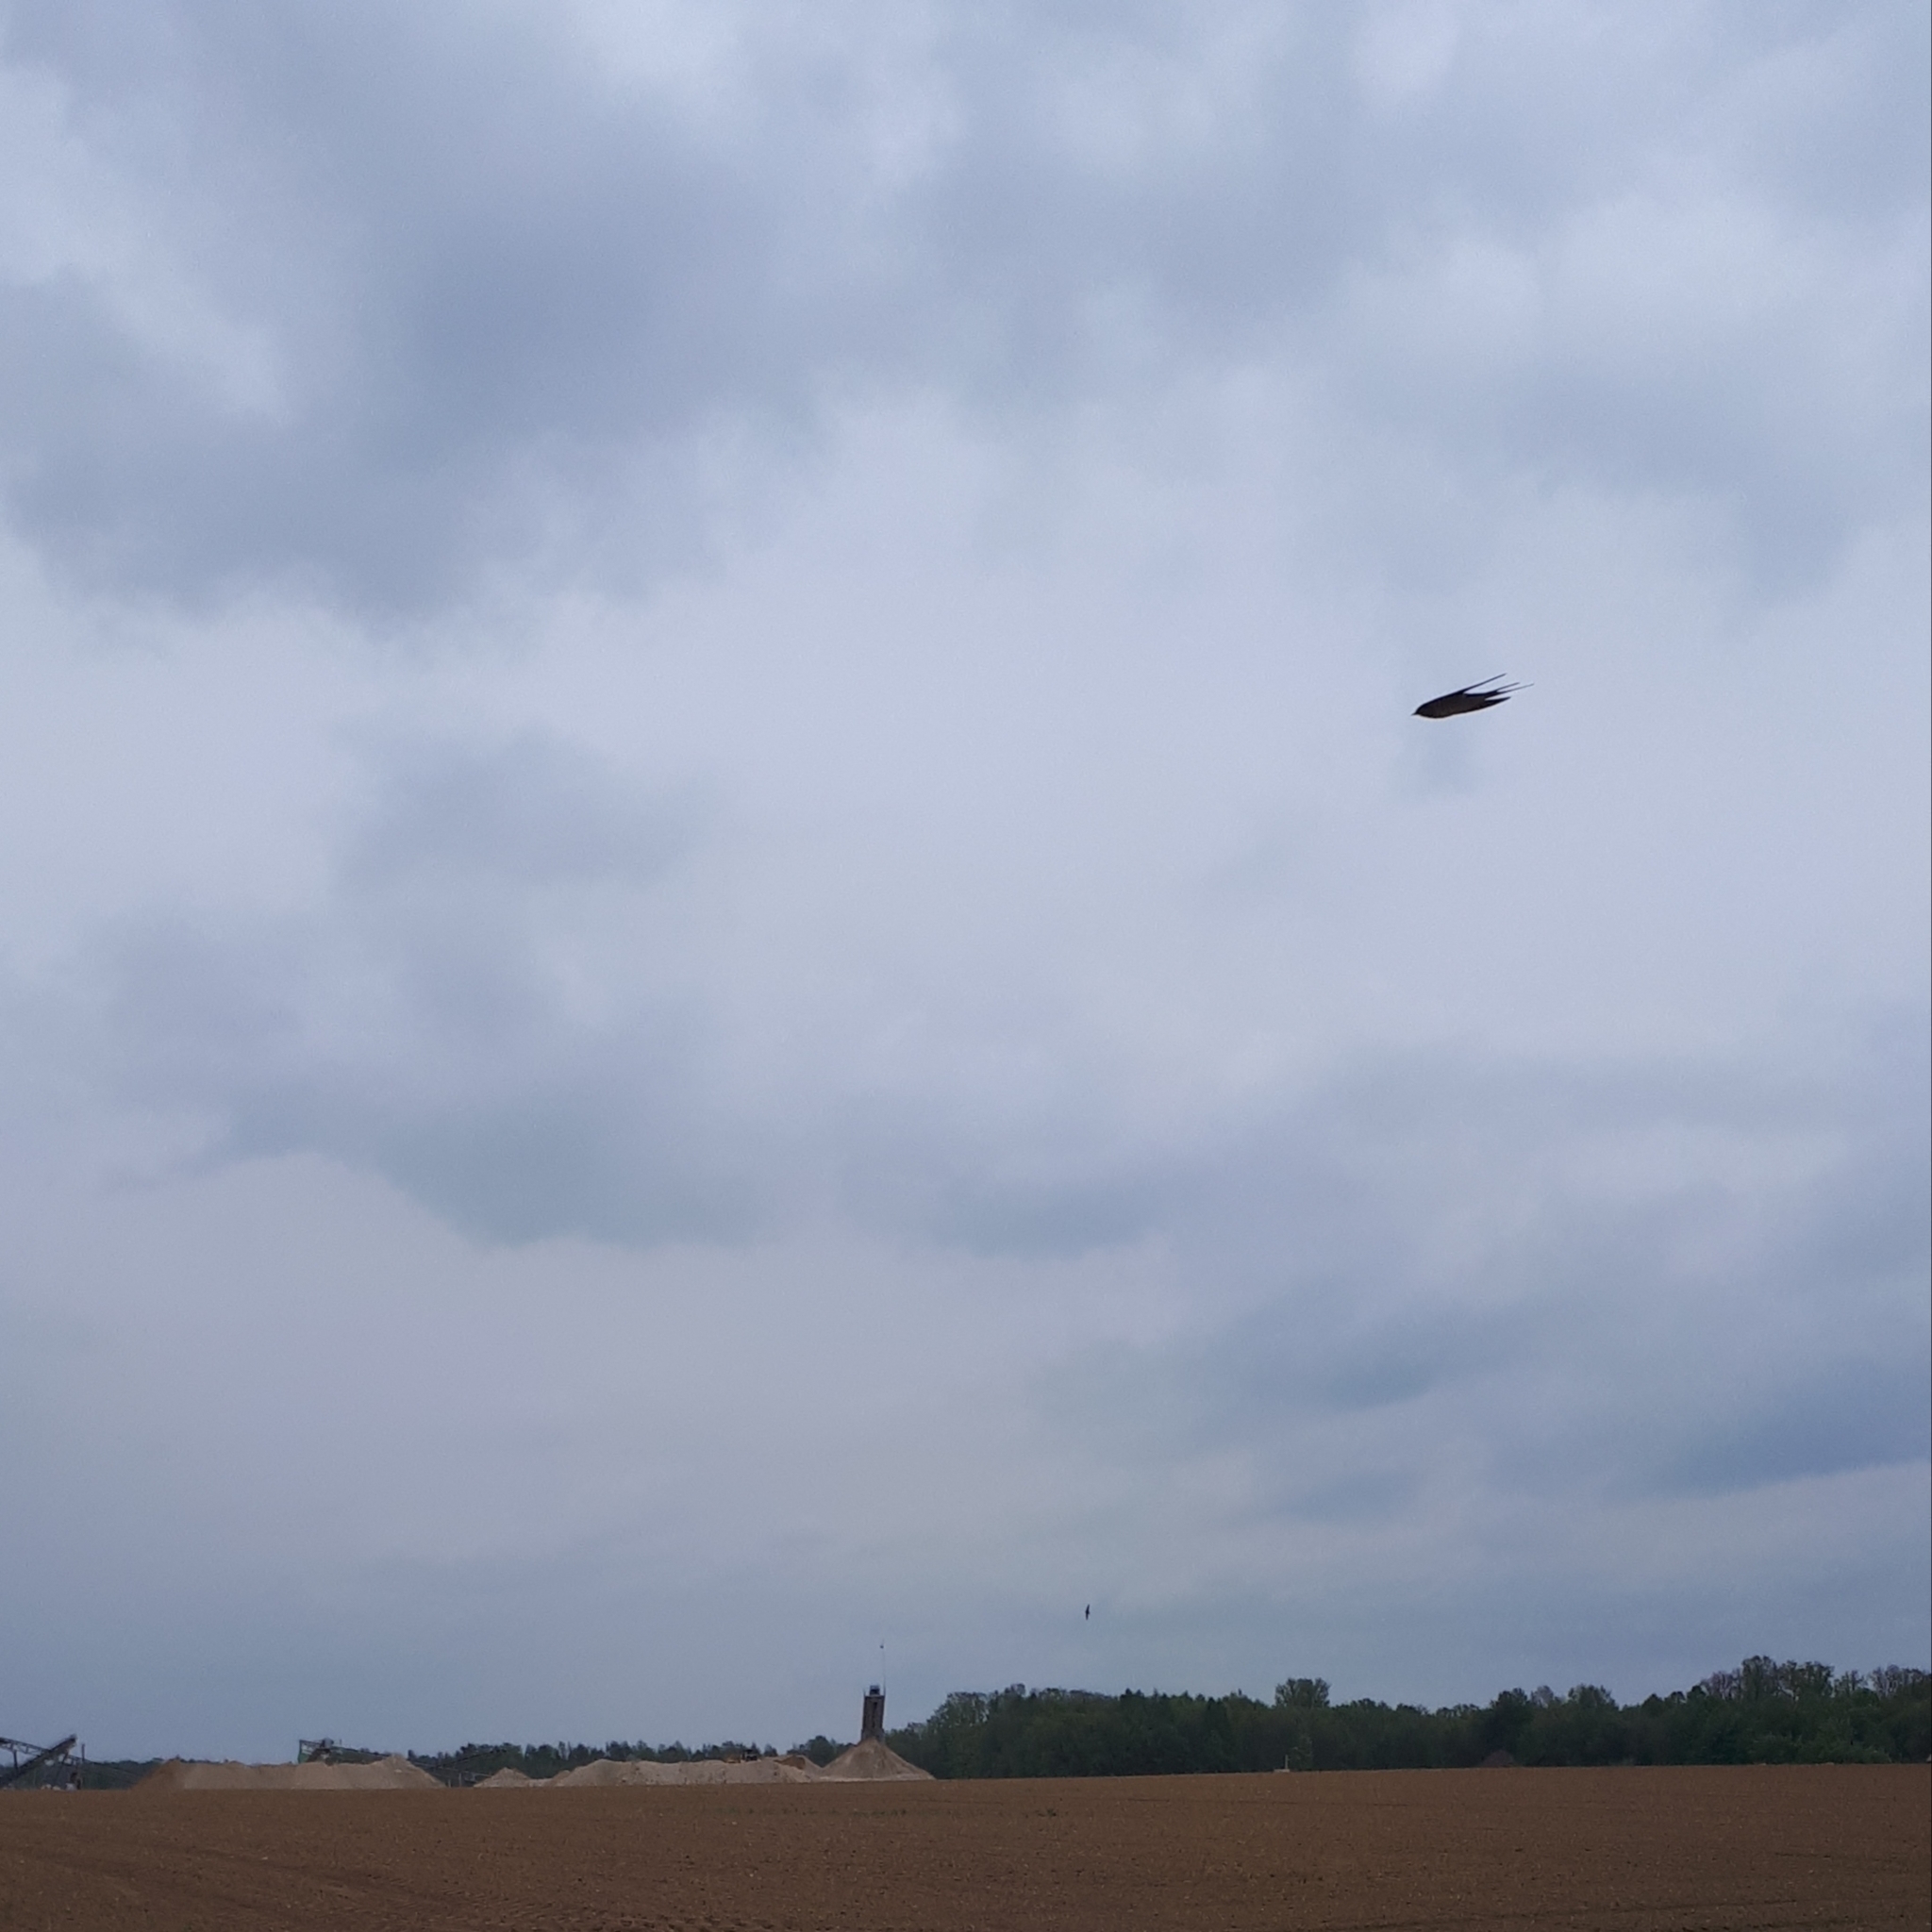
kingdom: Animalia
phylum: Chordata
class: Aves
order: Passeriformes
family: Hirundinidae
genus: Hirundo
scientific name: Hirundo rustica
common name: Barn swallow
